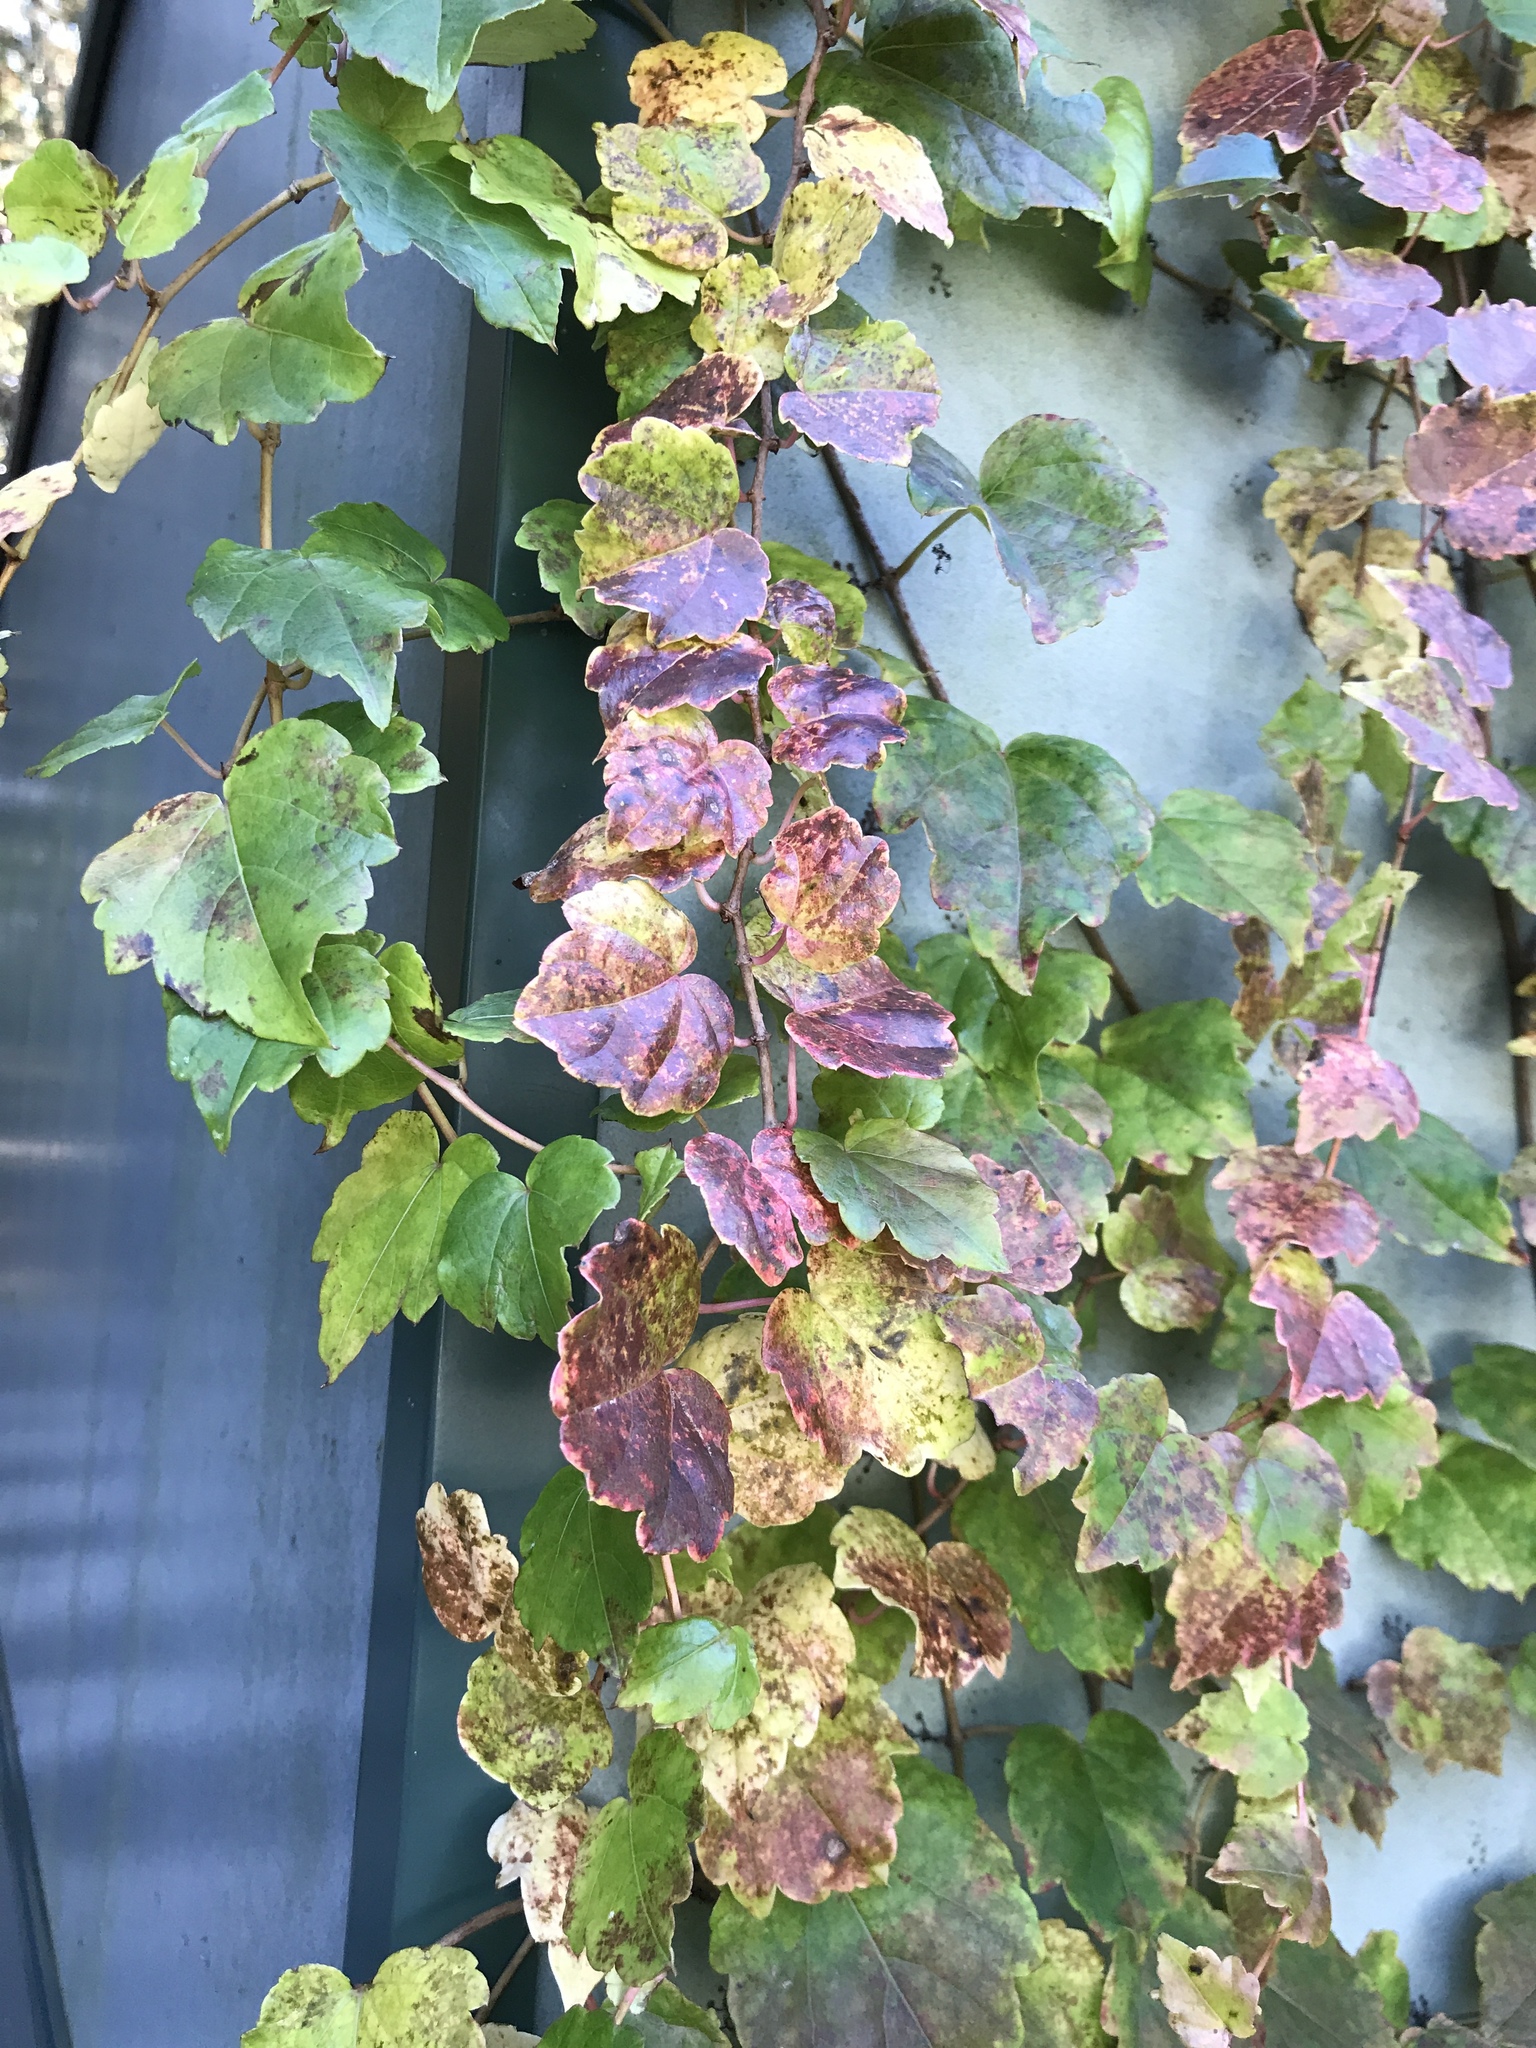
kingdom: Plantae
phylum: Tracheophyta
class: Magnoliopsida
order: Vitales
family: Vitaceae
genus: Parthenocissus
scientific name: Parthenocissus tricuspidata
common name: Boston ivy
